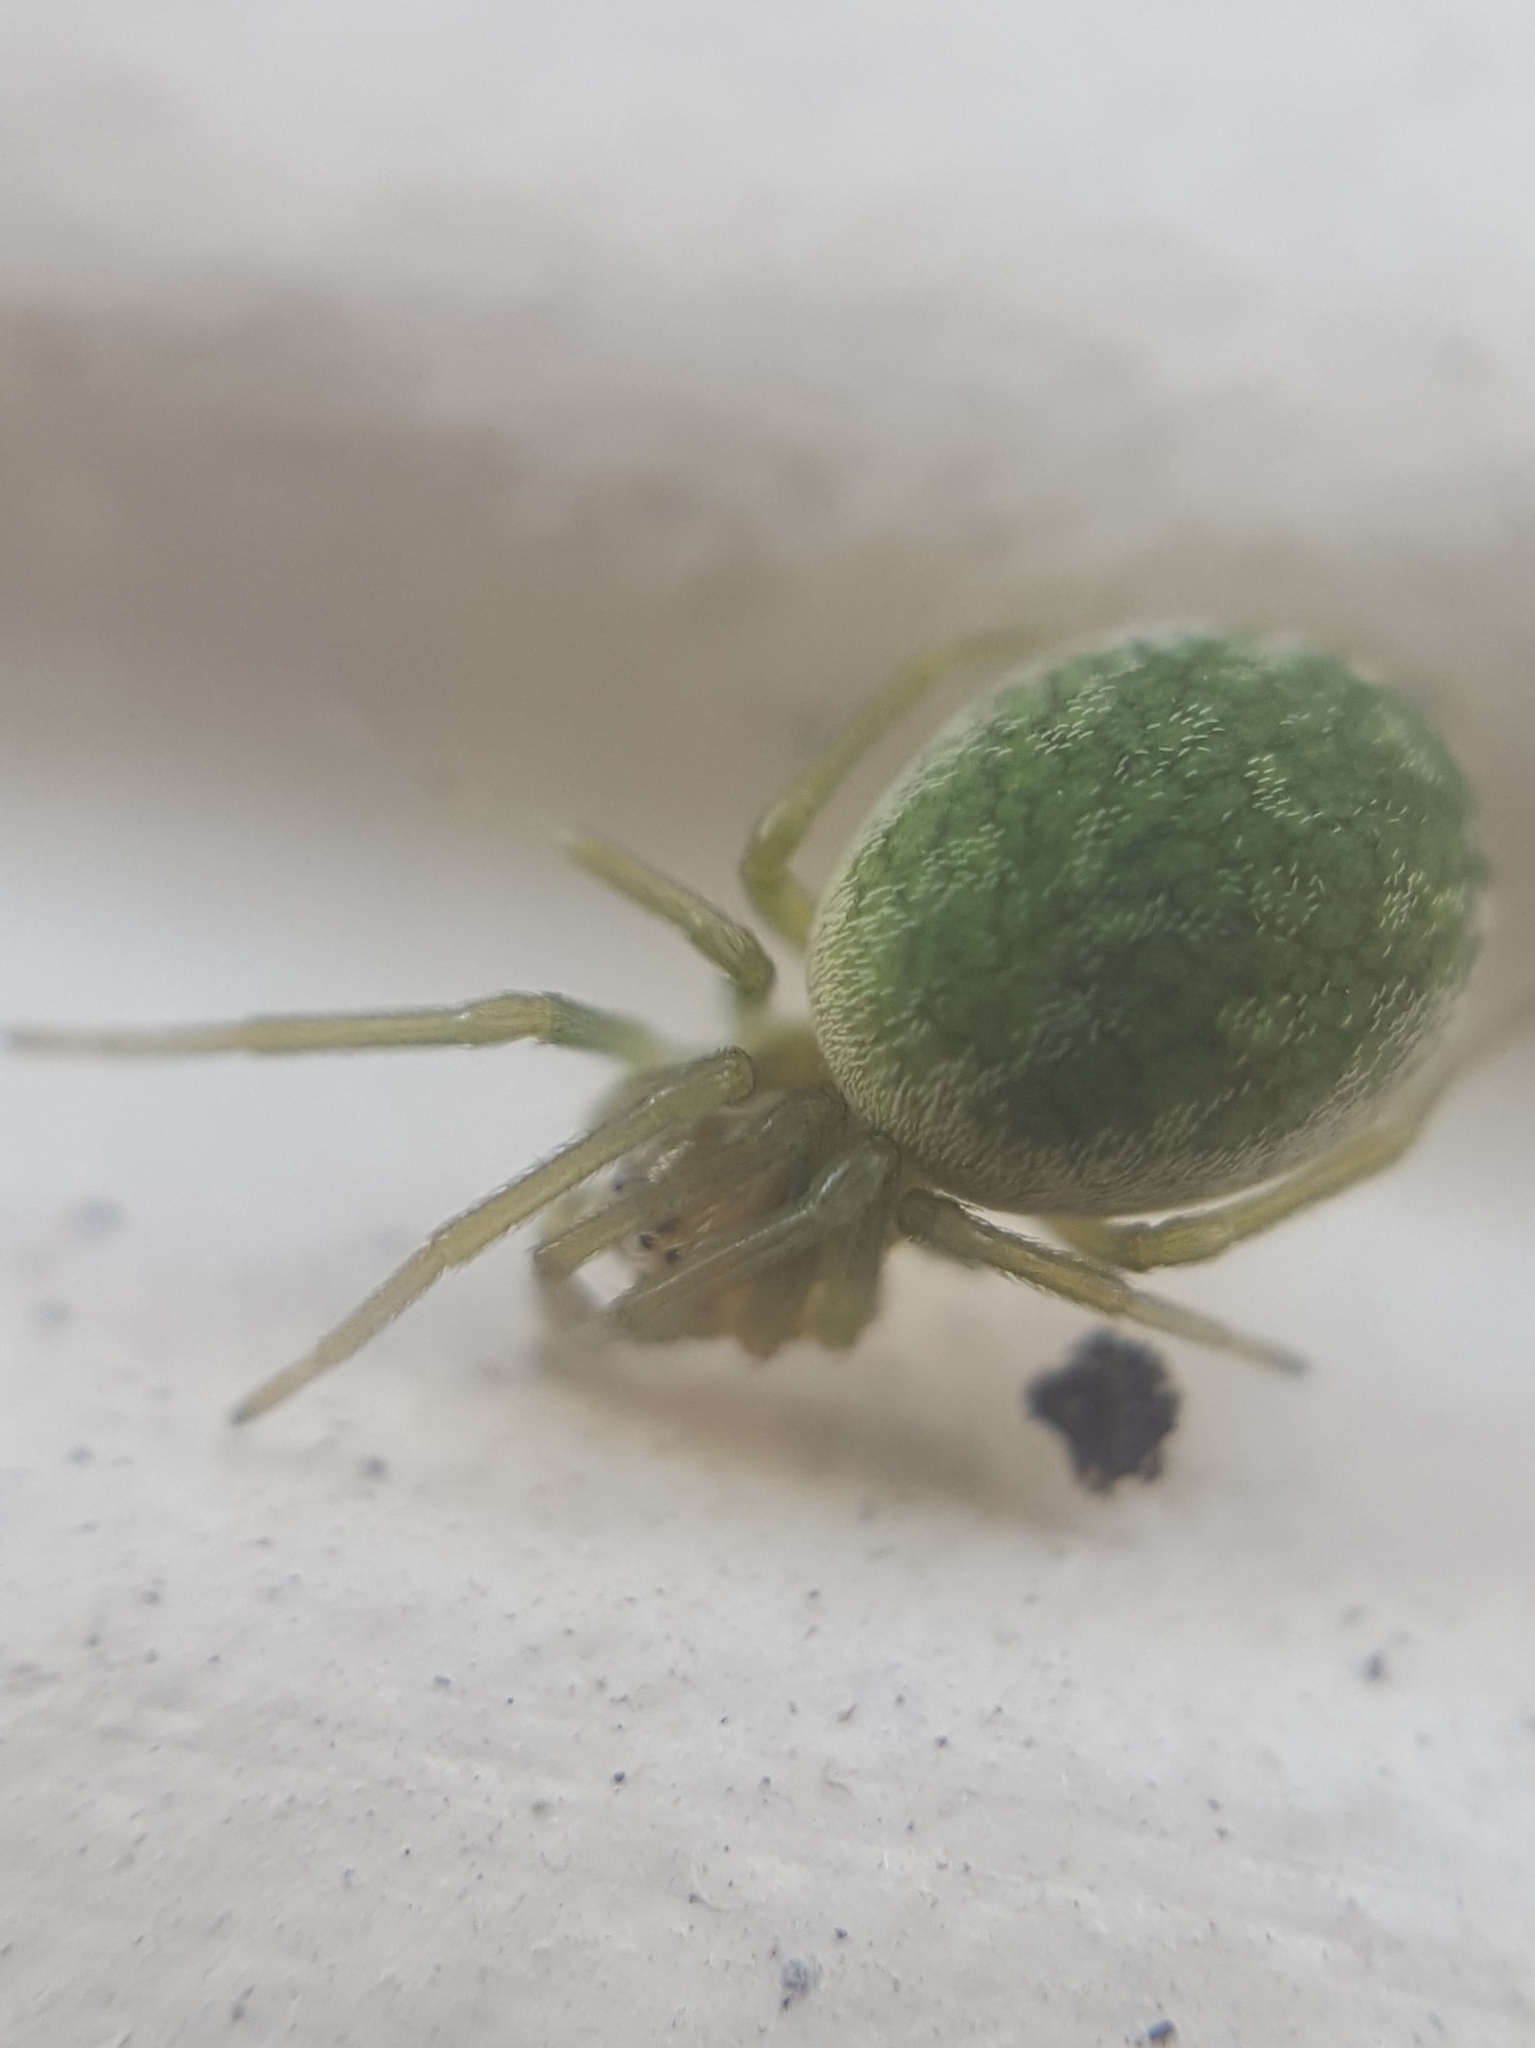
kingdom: Animalia
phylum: Arthropoda
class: Arachnida
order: Araneae
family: Dictynidae
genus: Nigma
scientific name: Nigma walckenaeri
